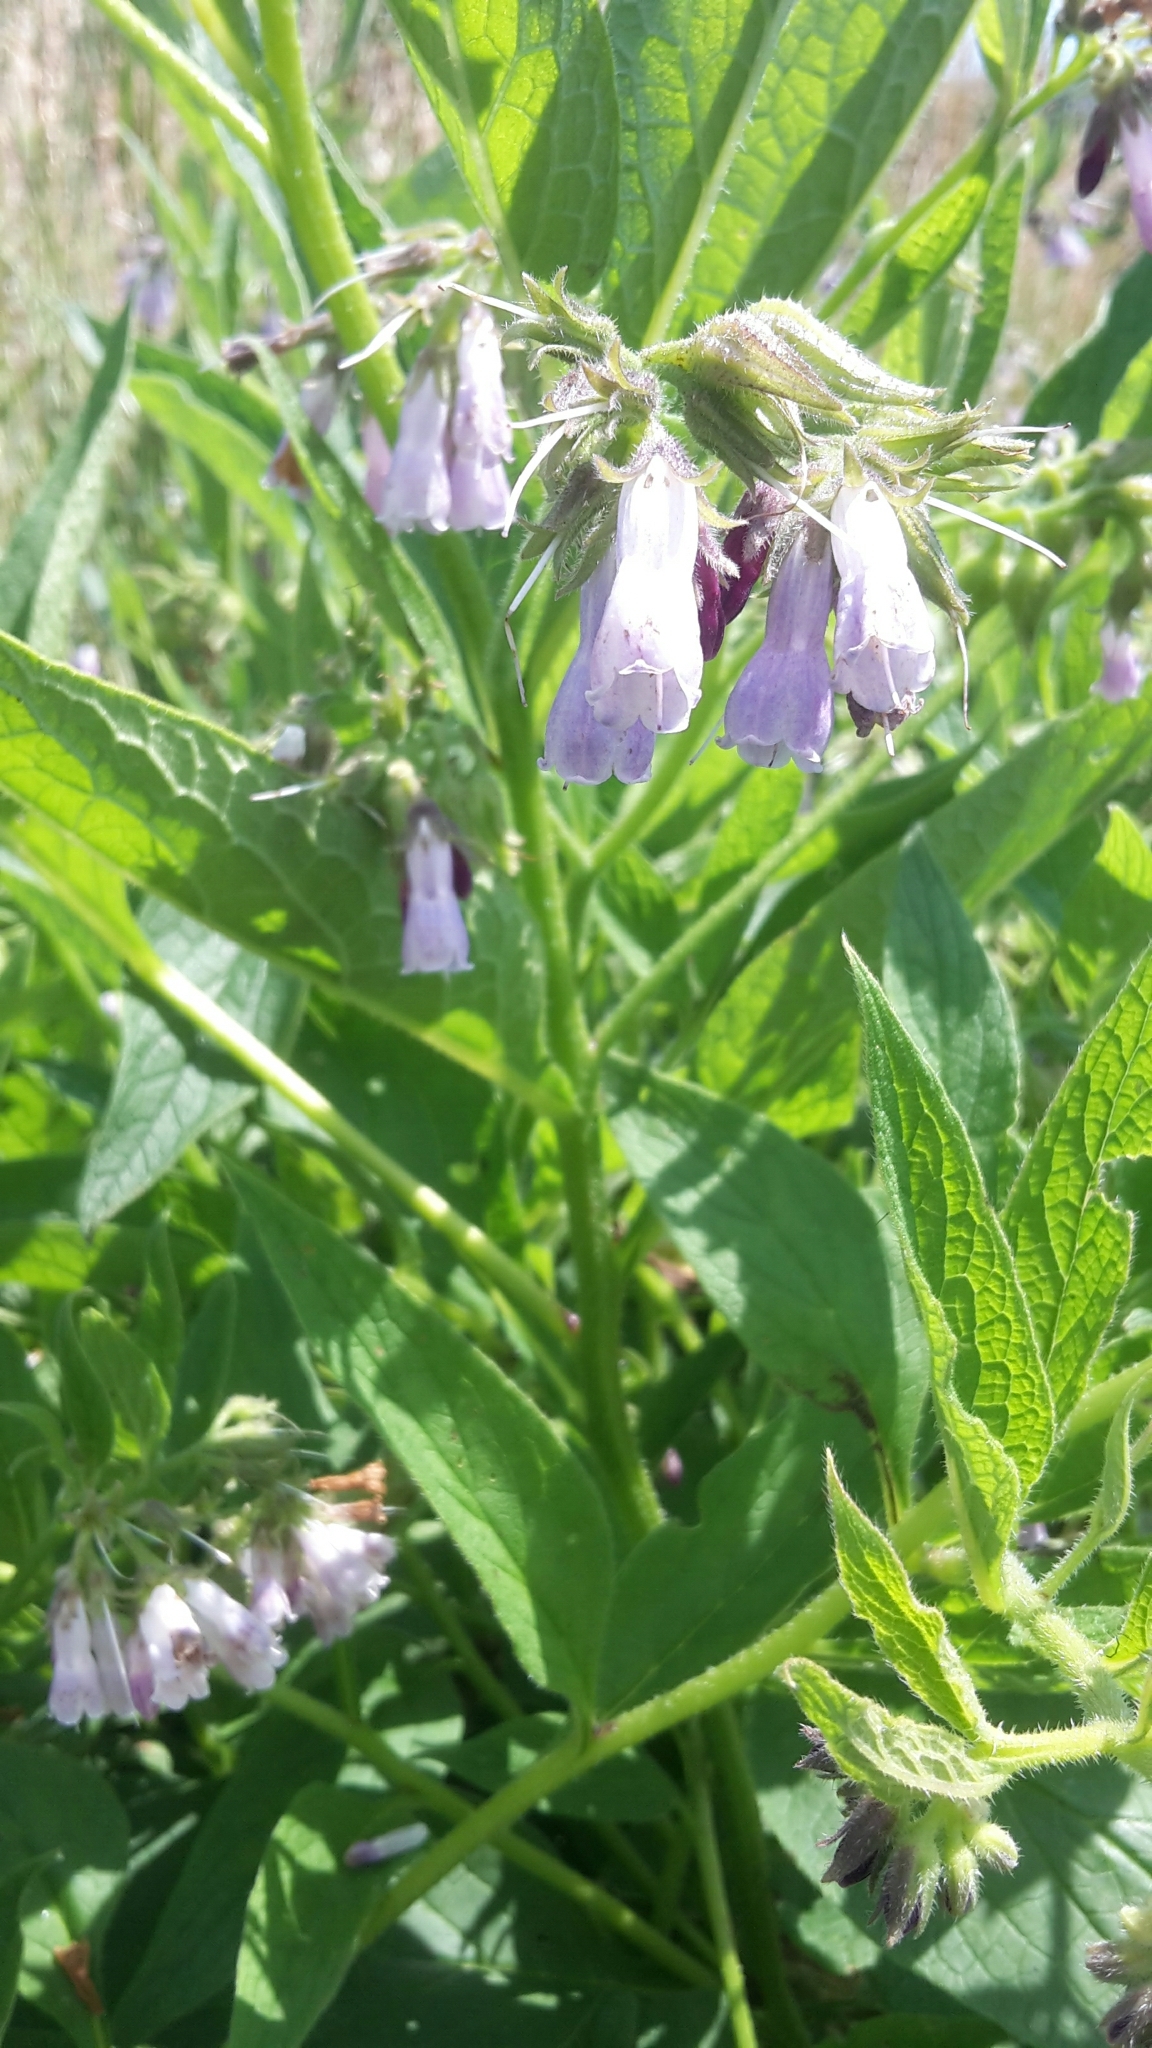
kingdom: Plantae
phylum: Tracheophyta
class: Magnoliopsida
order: Boraginales
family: Boraginaceae
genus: Symphytum
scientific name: Symphytum officinale
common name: Common comfrey
